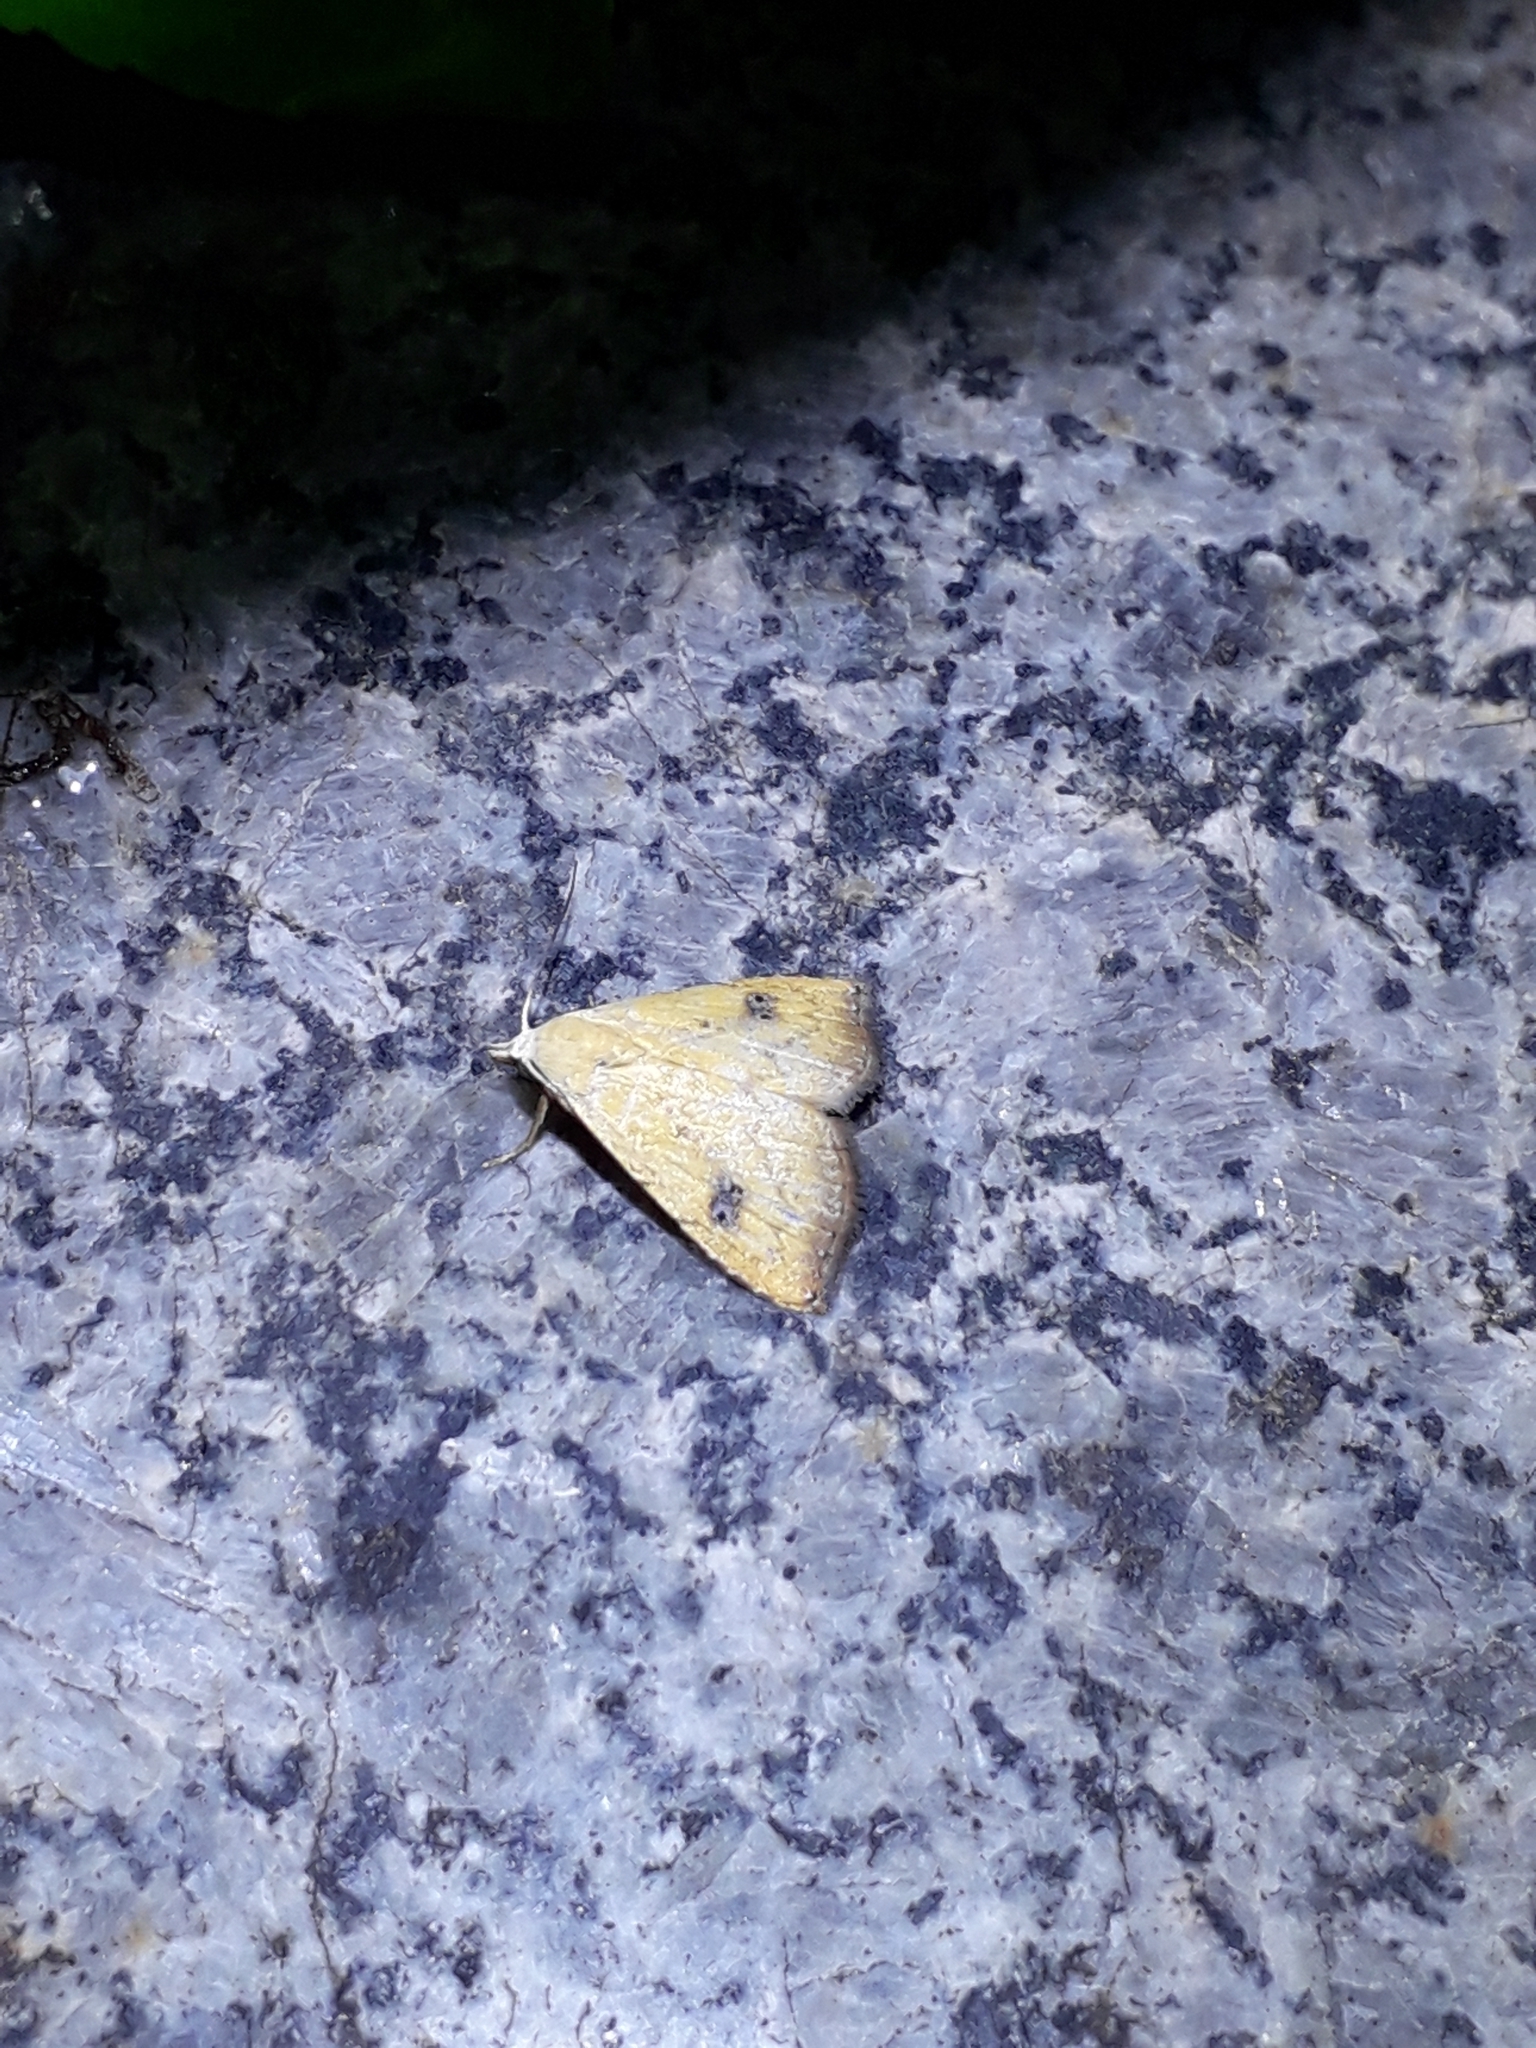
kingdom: Animalia
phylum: Arthropoda
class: Insecta
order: Lepidoptera
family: Erebidae
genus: Rivula
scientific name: Rivula sericealis
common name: Straw dot
